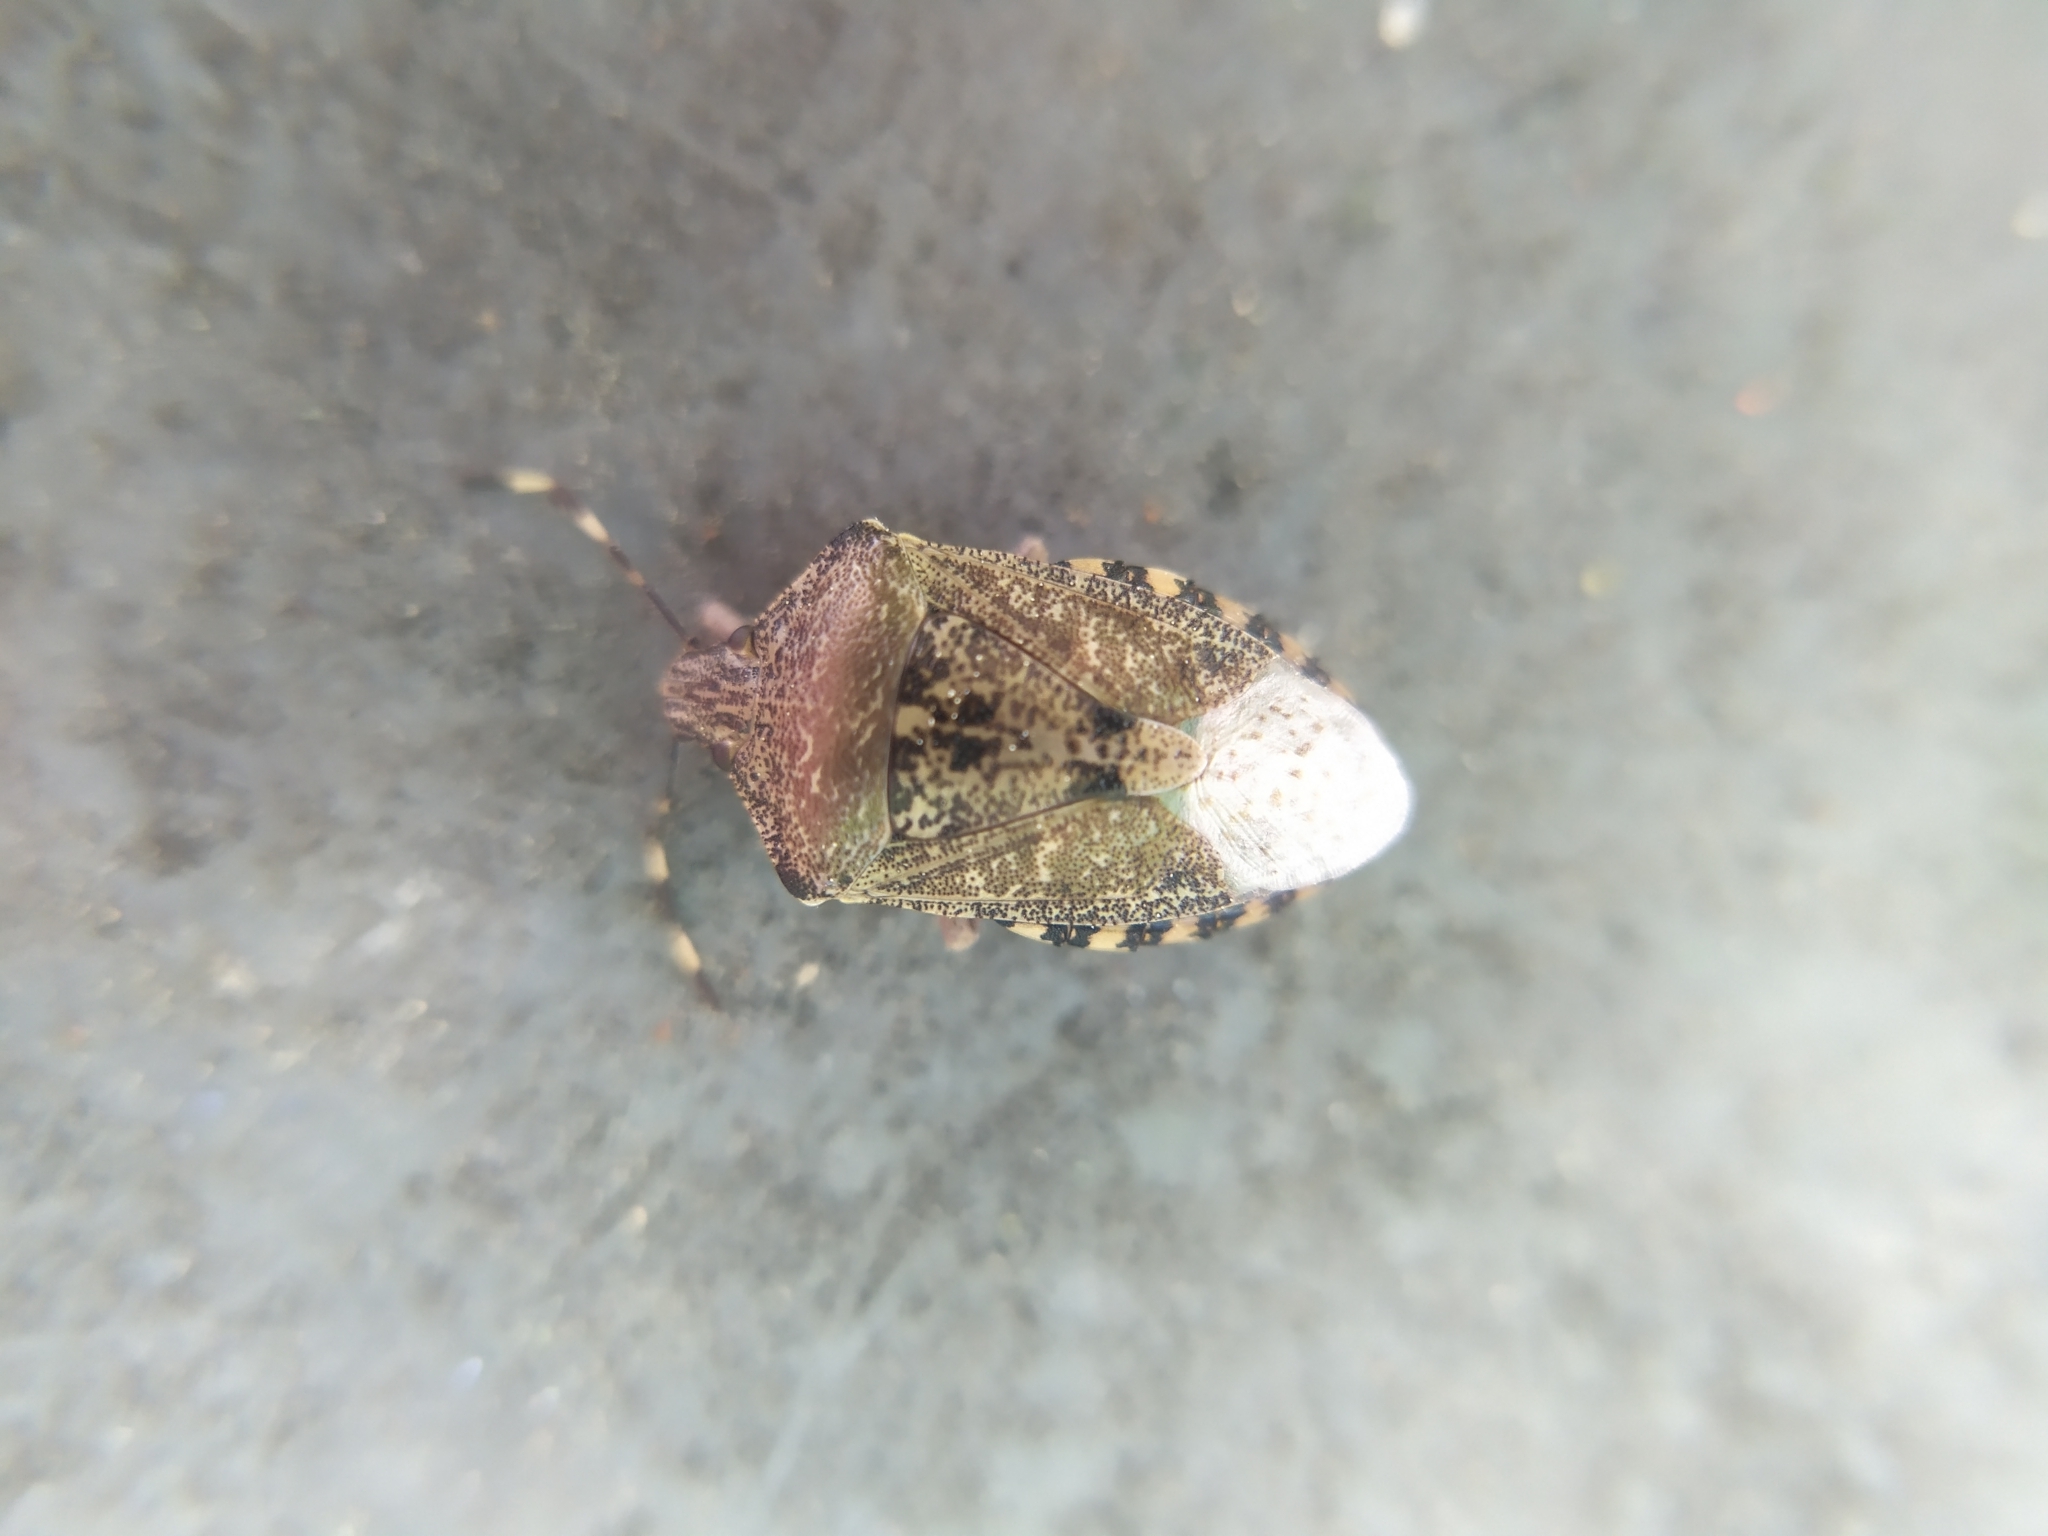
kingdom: Animalia
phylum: Arthropoda
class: Insecta
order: Hemiptera
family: Pentatomidae
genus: Rhaphigaster
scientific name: Rhaphigaster nebulosa
